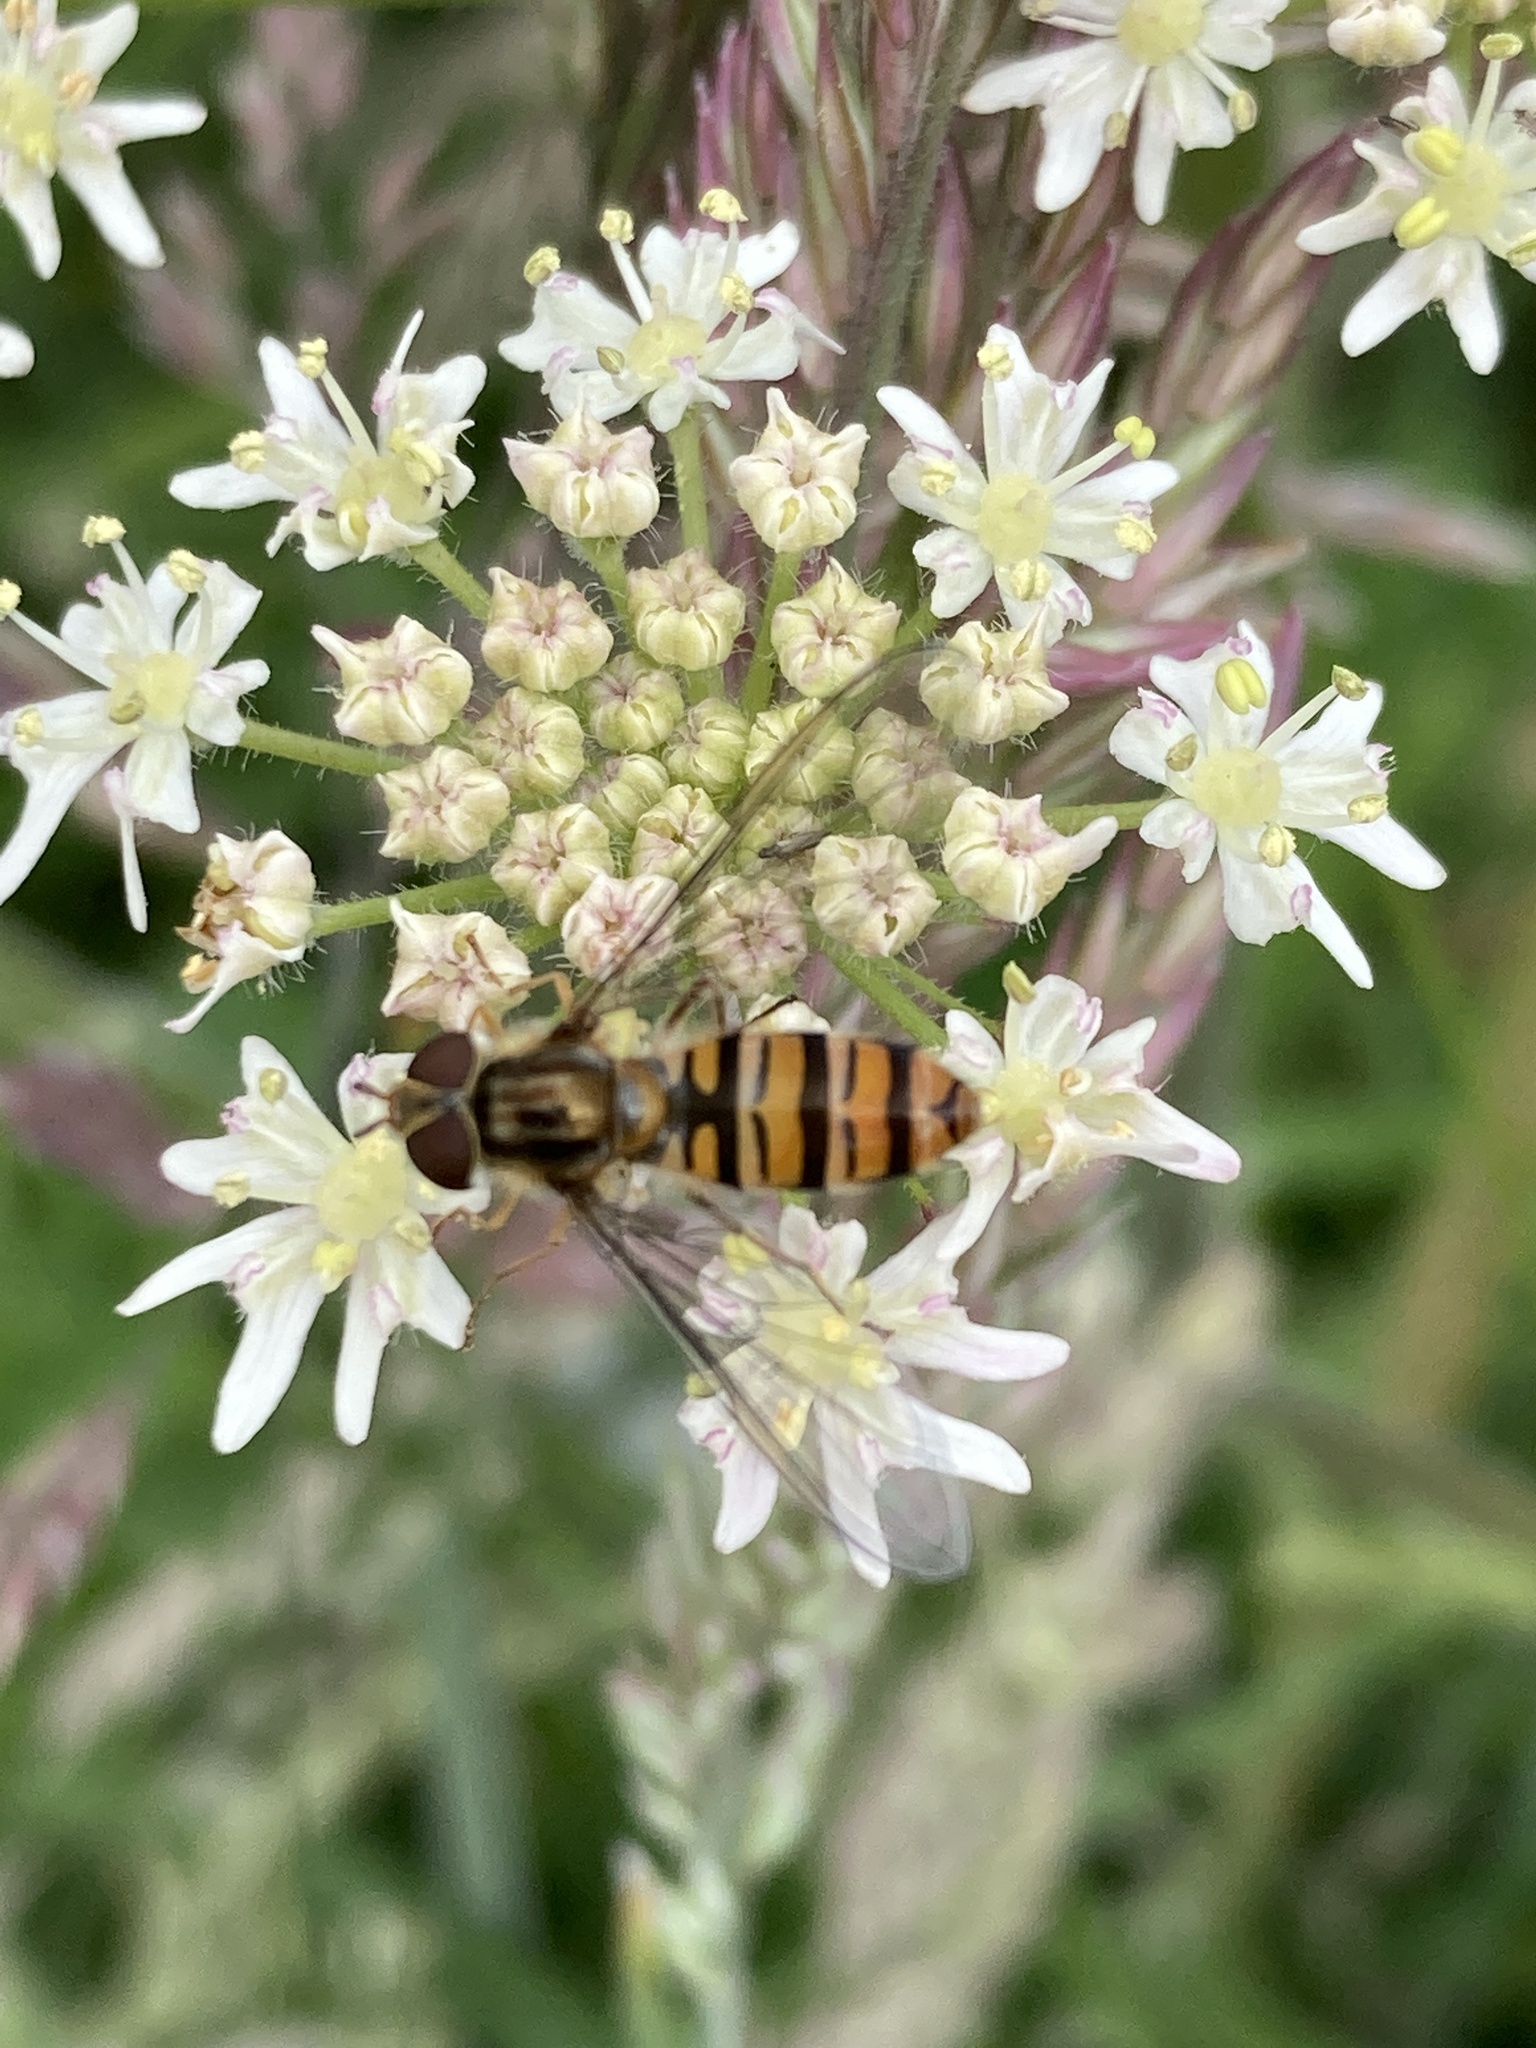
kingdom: Animalia
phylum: Arthropoda
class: Insecta
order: Diptera
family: Syrphidae
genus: Episyrphus
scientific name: Episyrphus balteatus
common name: Marmalade hoverfly
